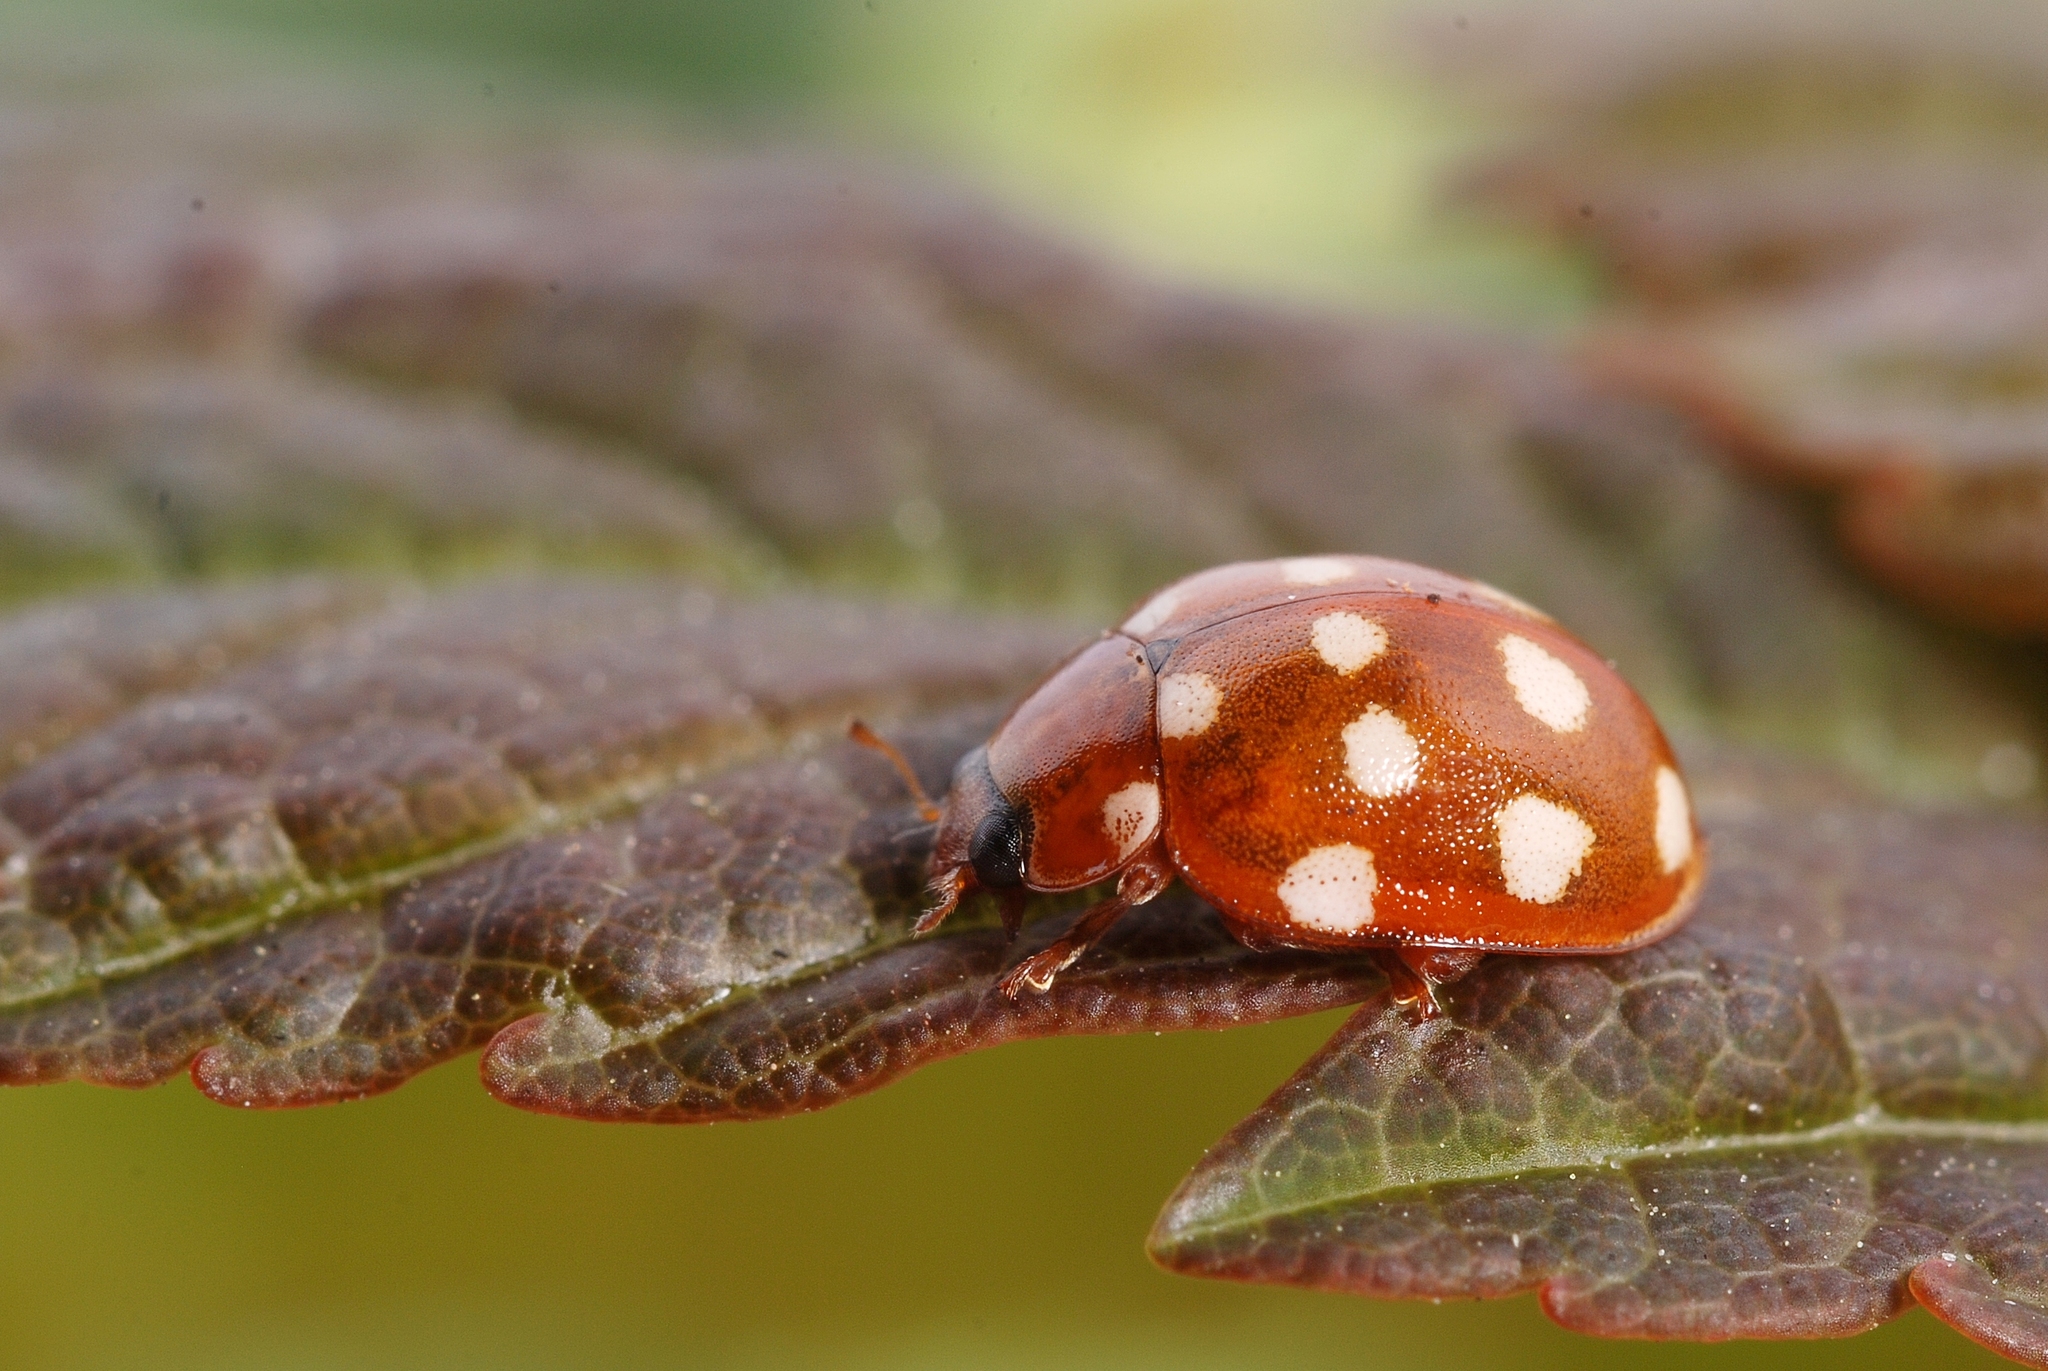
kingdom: Animalia
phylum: Arthropoda
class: Insecta
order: Coleoptera
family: Coccinellidae
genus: Calvia
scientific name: Calvia quatuordecimguttata
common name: Cream-spot ladybird
